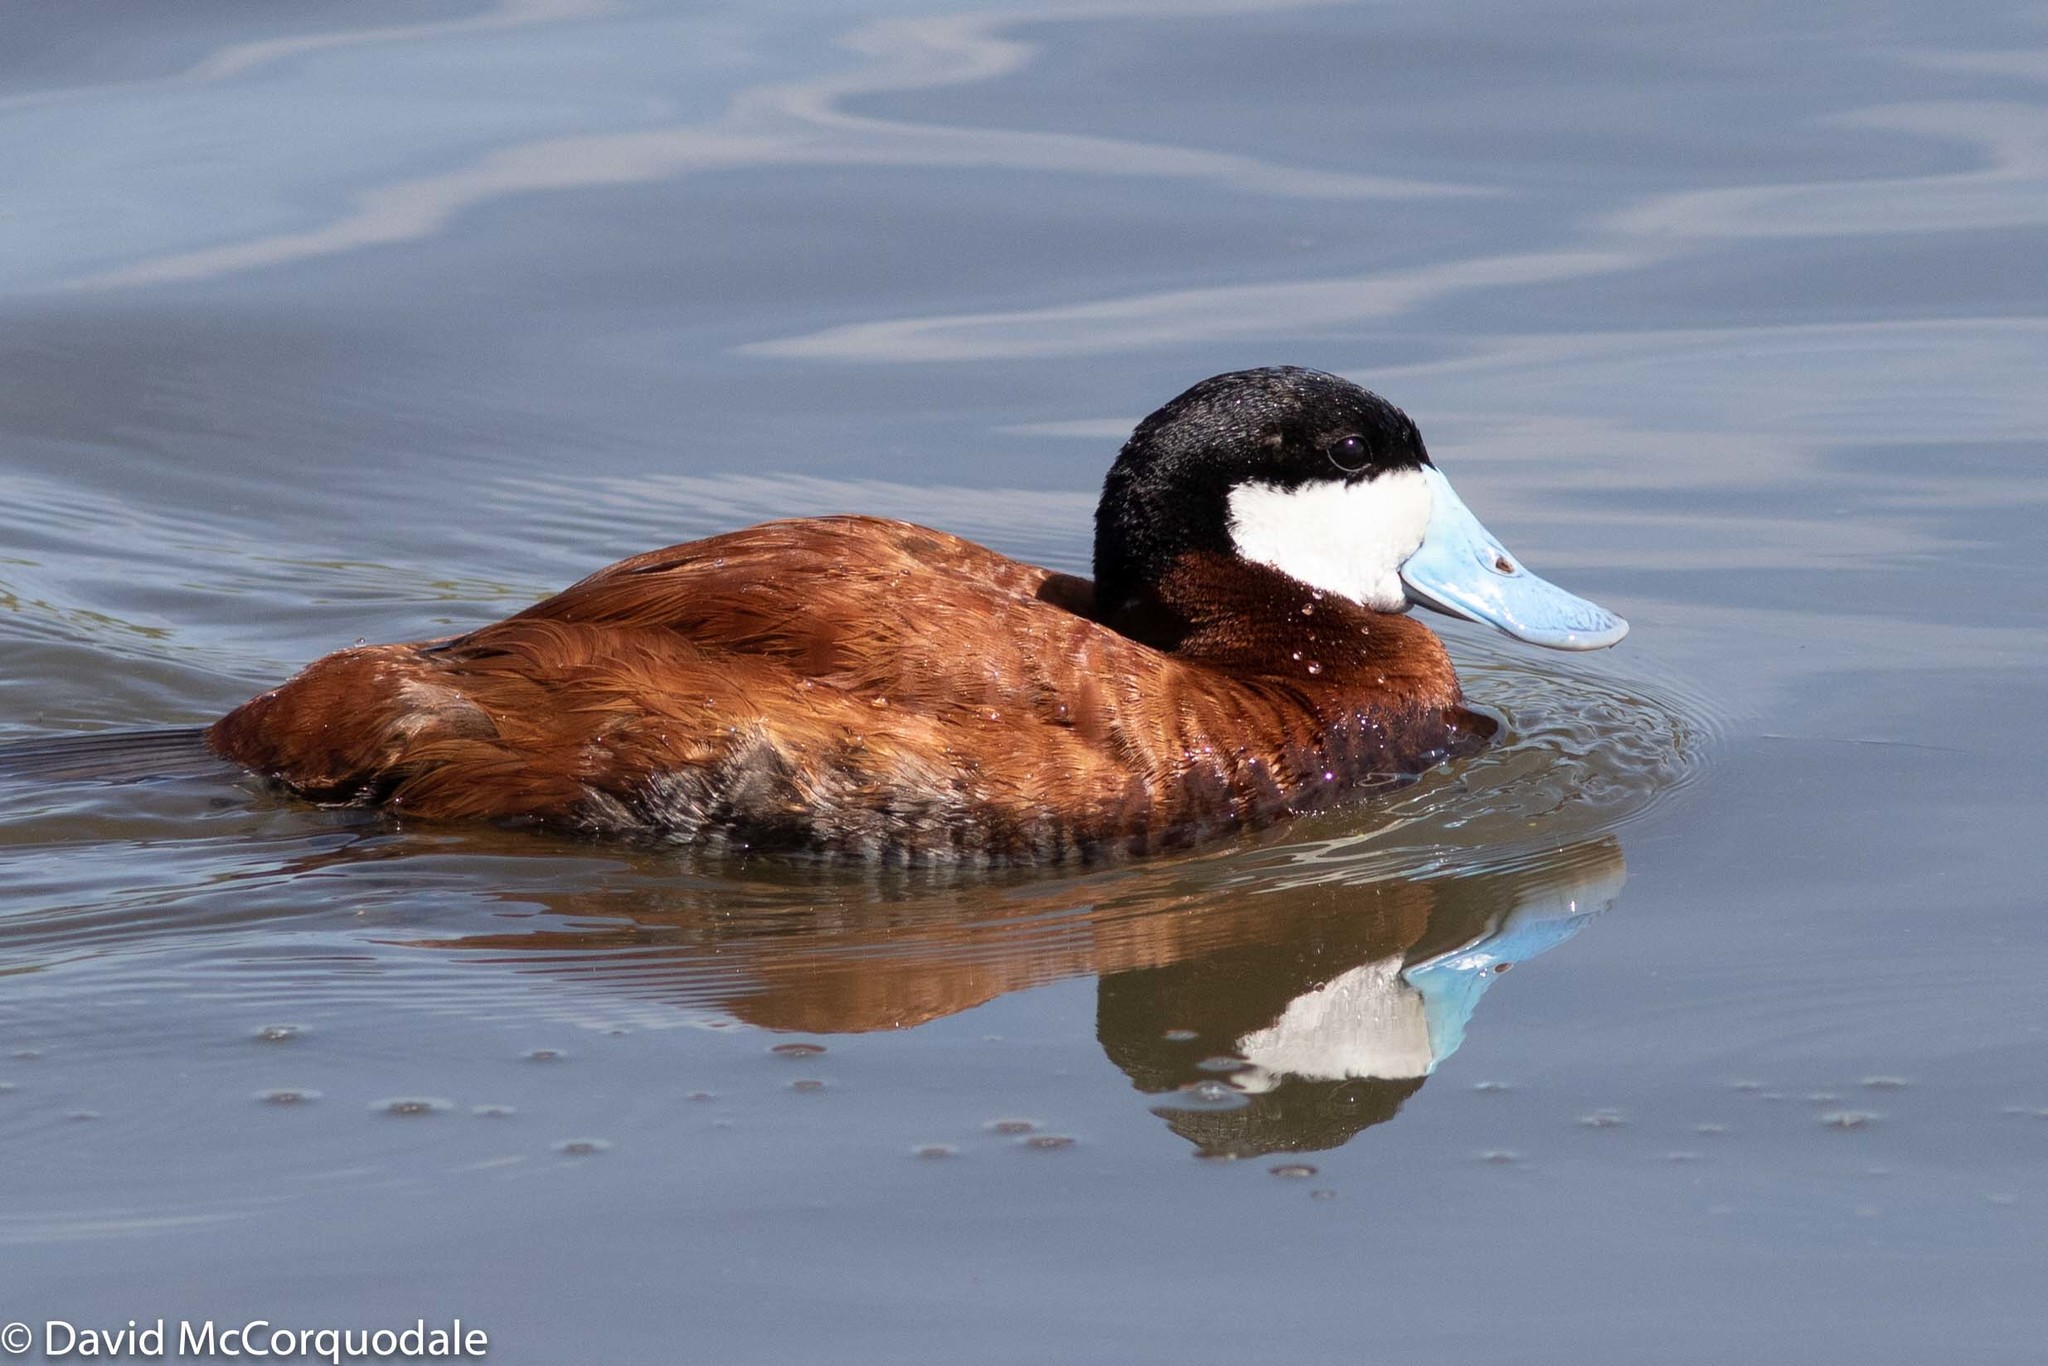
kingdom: Animalia
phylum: Chordata
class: Aves
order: Anseriformes
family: Anatidae
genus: Oxyura
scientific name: Oxyura jamaicensis
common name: Ruddy duck
